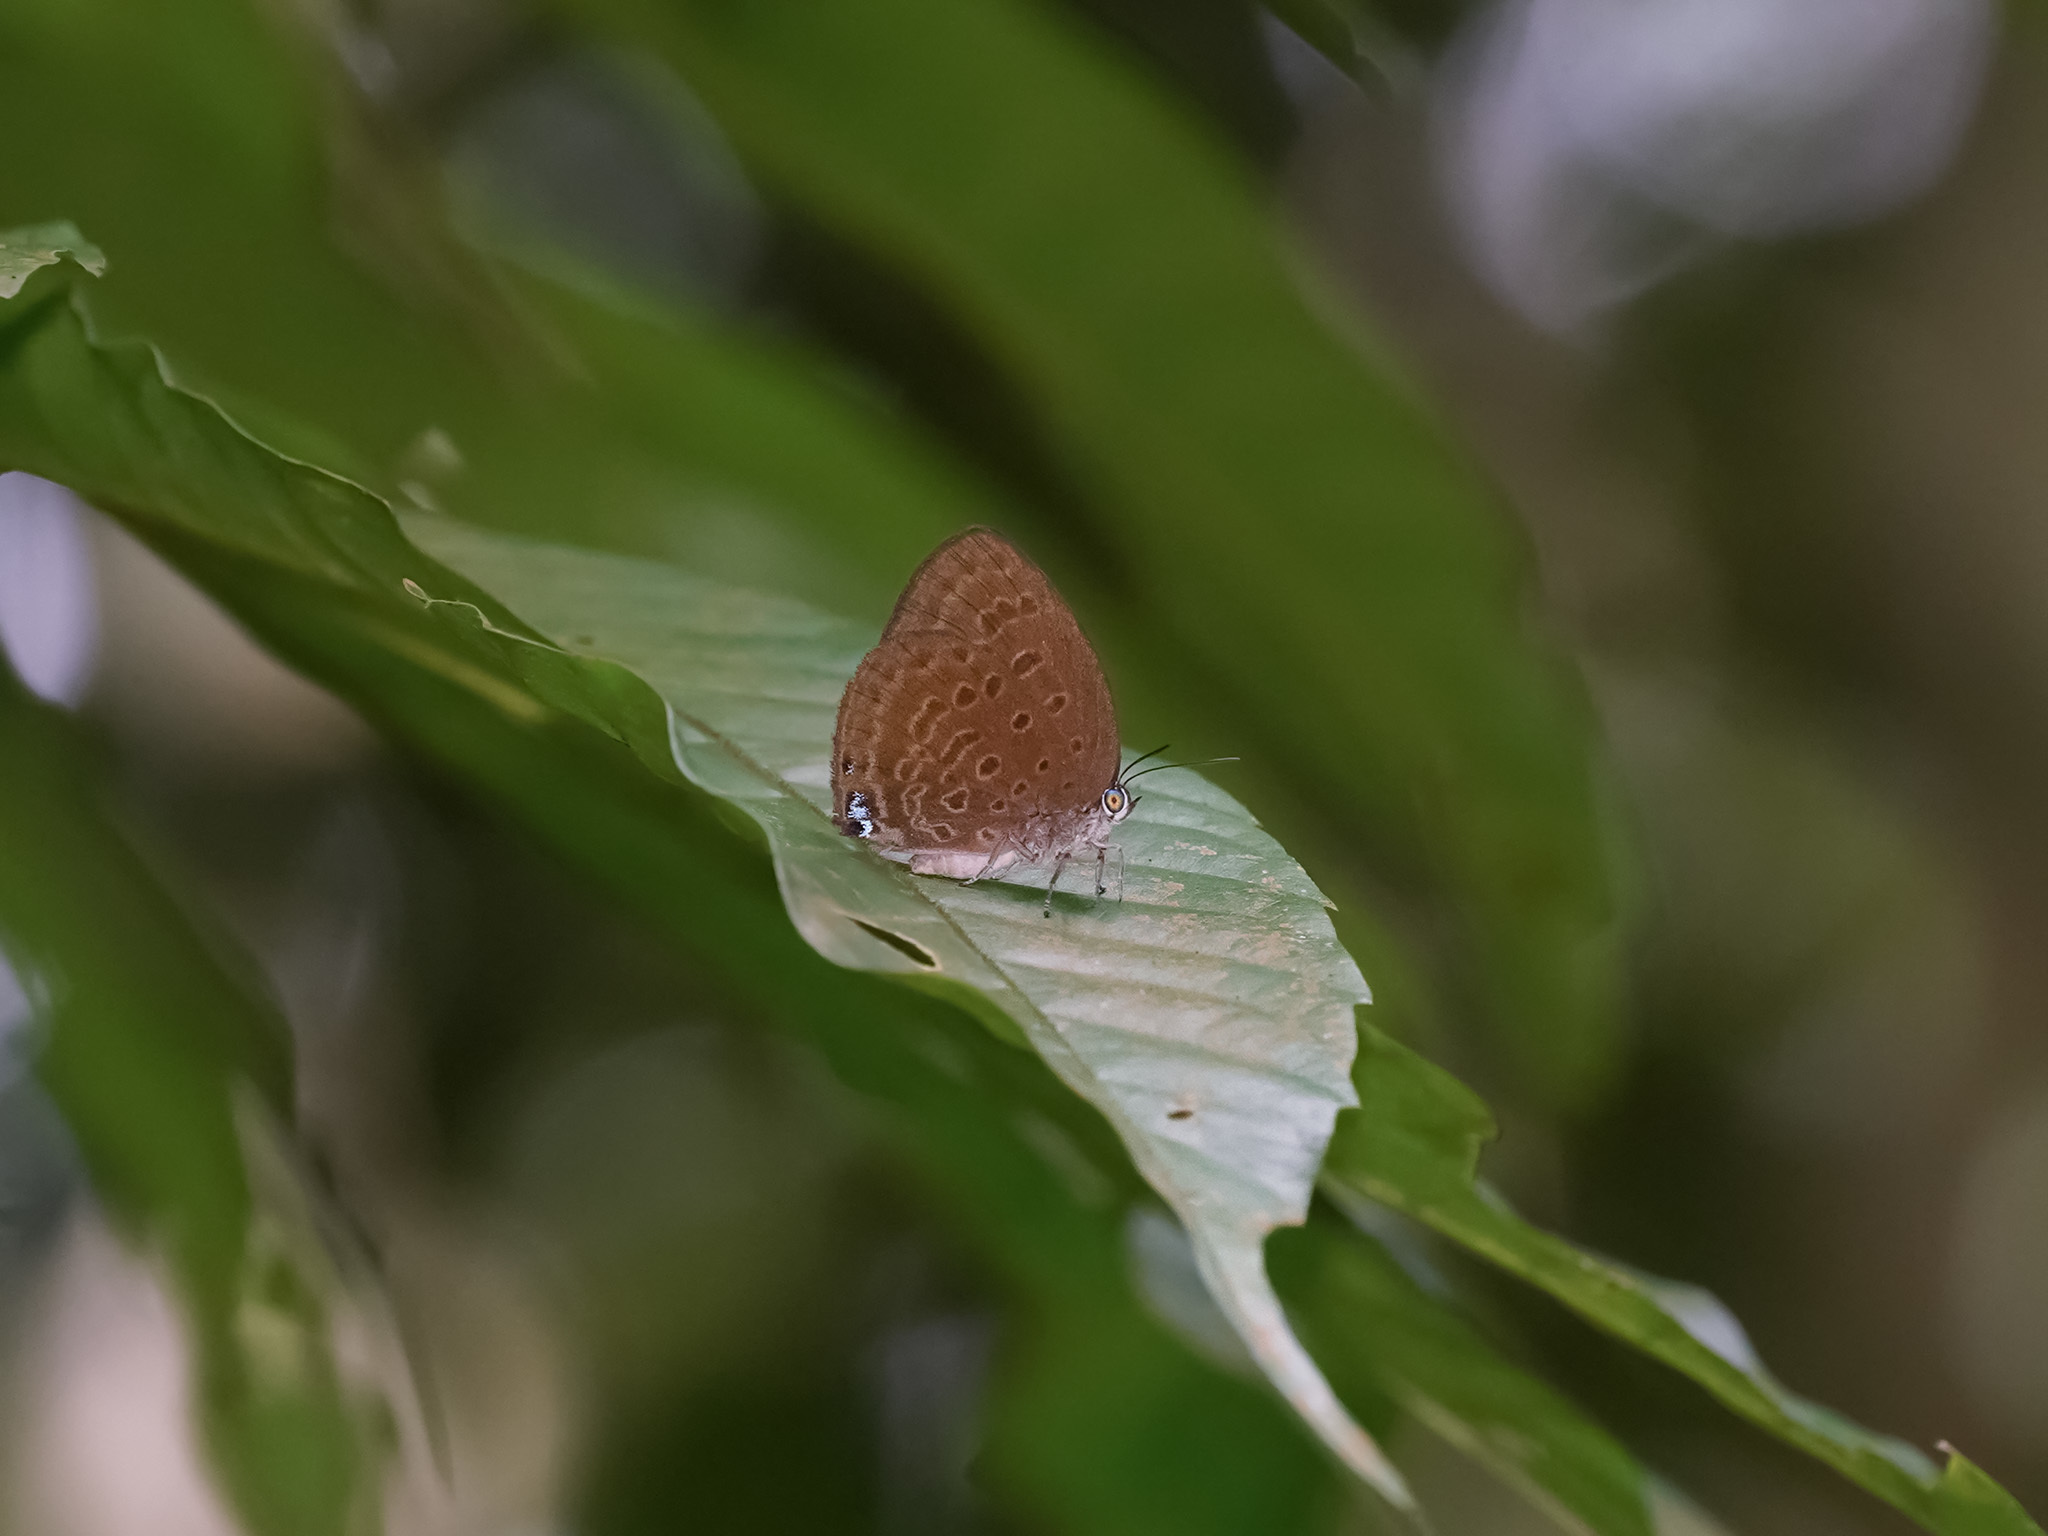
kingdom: Animalia
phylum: Arthropoda
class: Insecta
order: Lepidoptera
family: Lycaenidae
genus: Arhopala
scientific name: Arhopala major
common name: Major yellow oakblue
